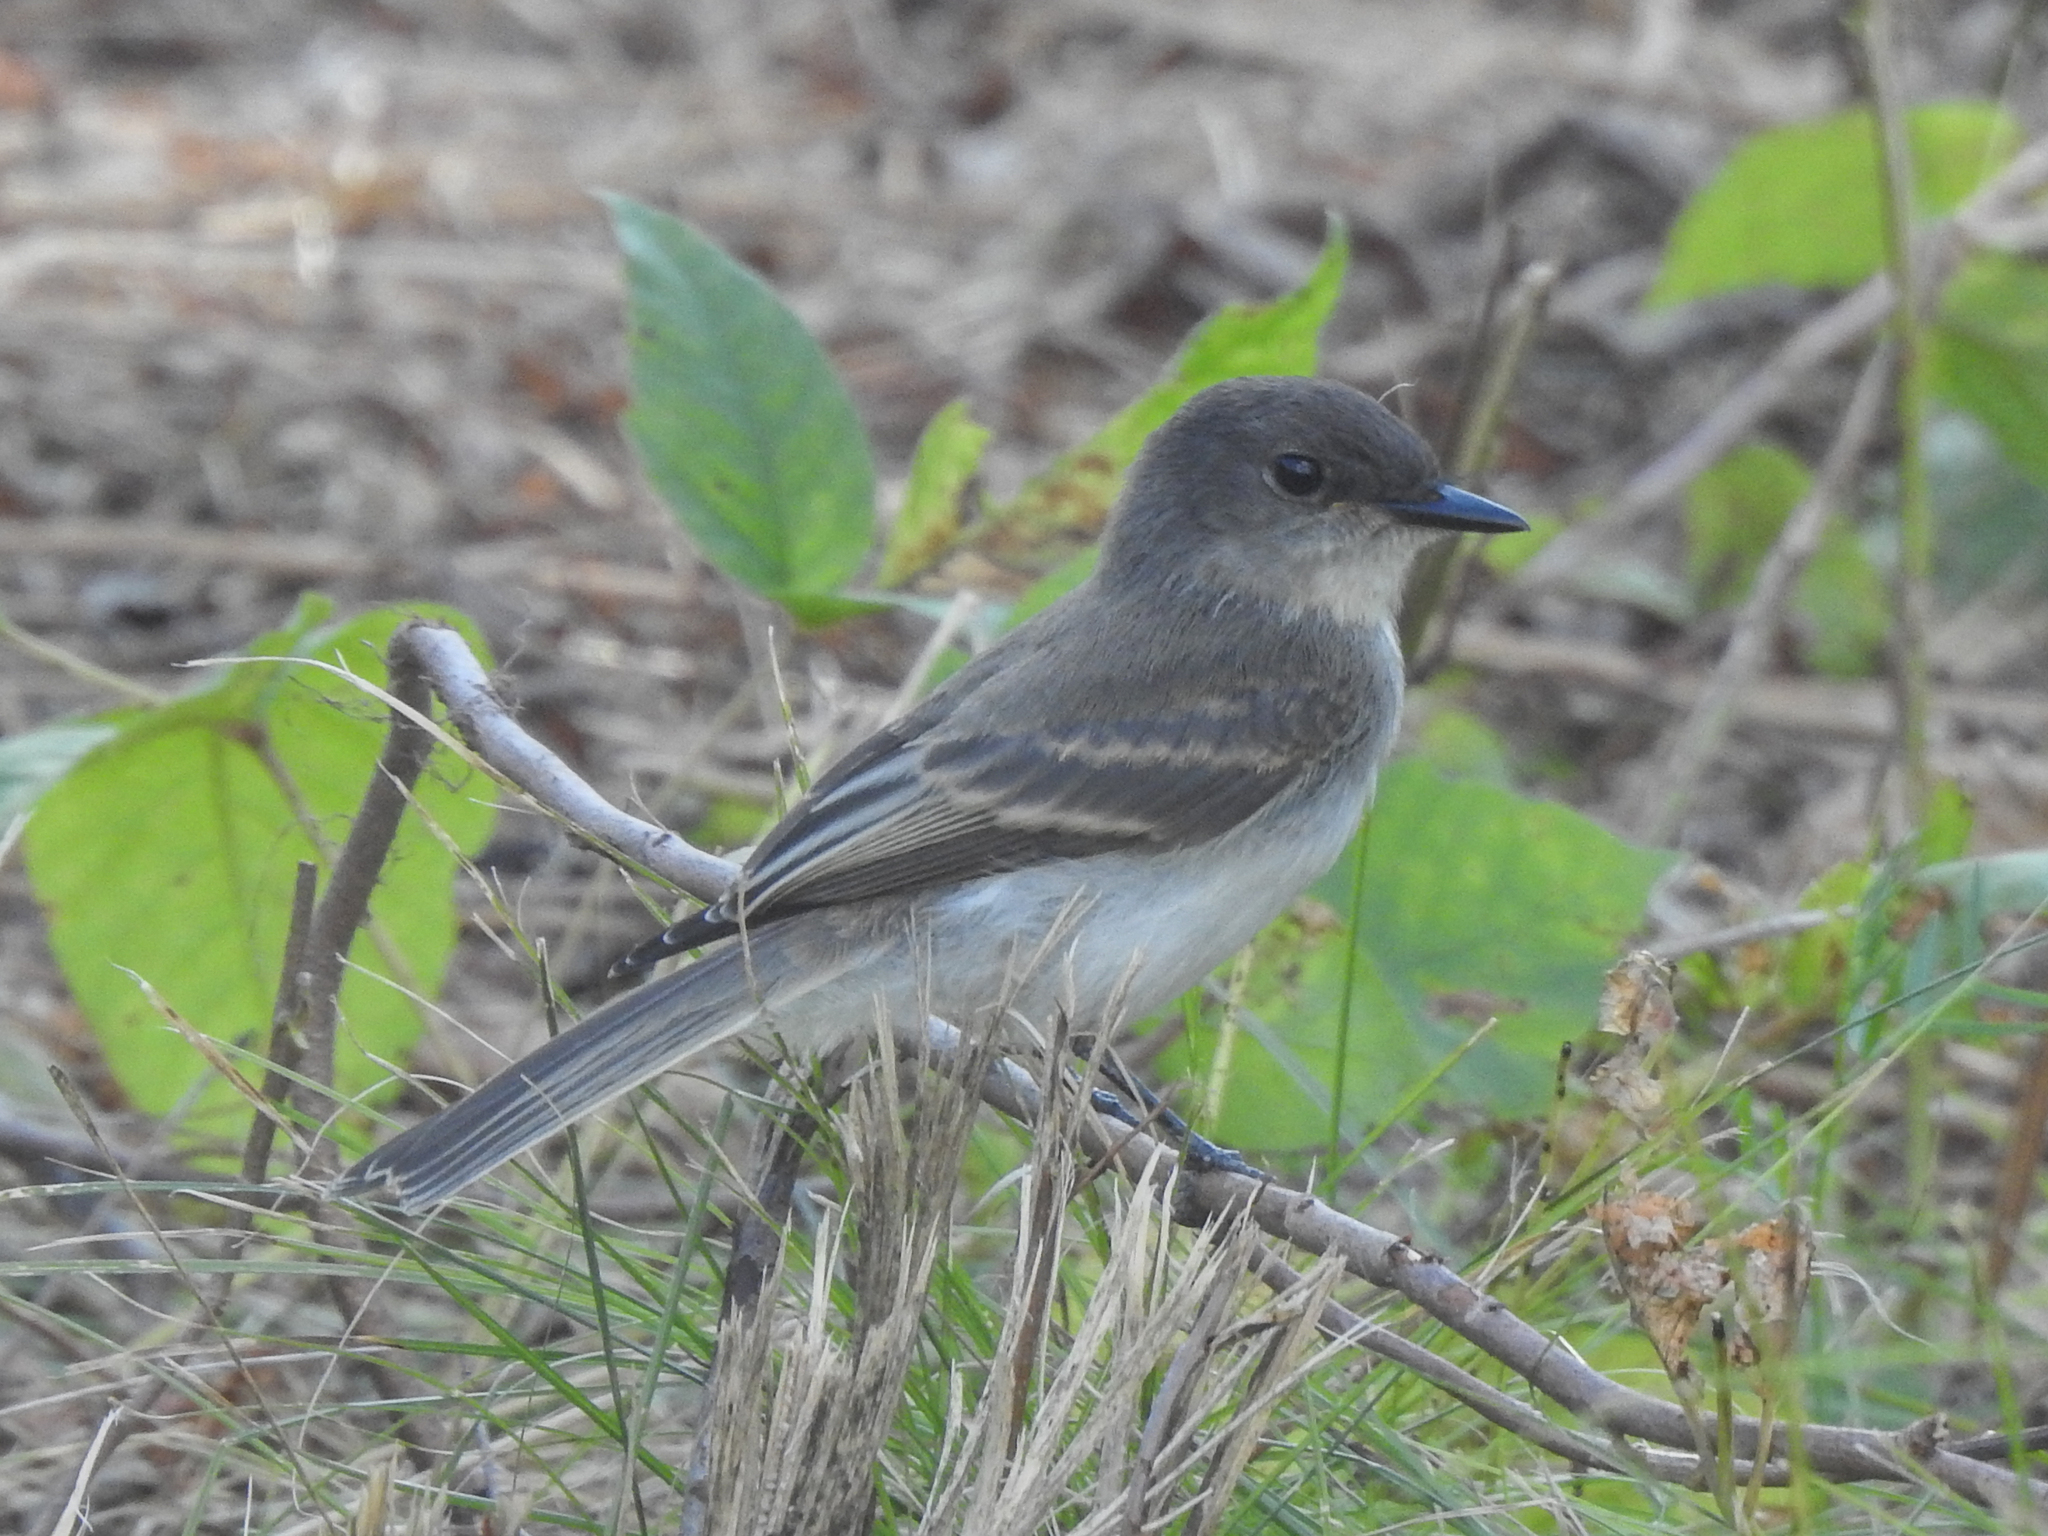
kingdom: Animalia
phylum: Chordata
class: Aves
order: Passeriformes
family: Tyrannidae
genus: Sayornis
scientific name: Sayornis phoebe
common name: Eastern phoebe
